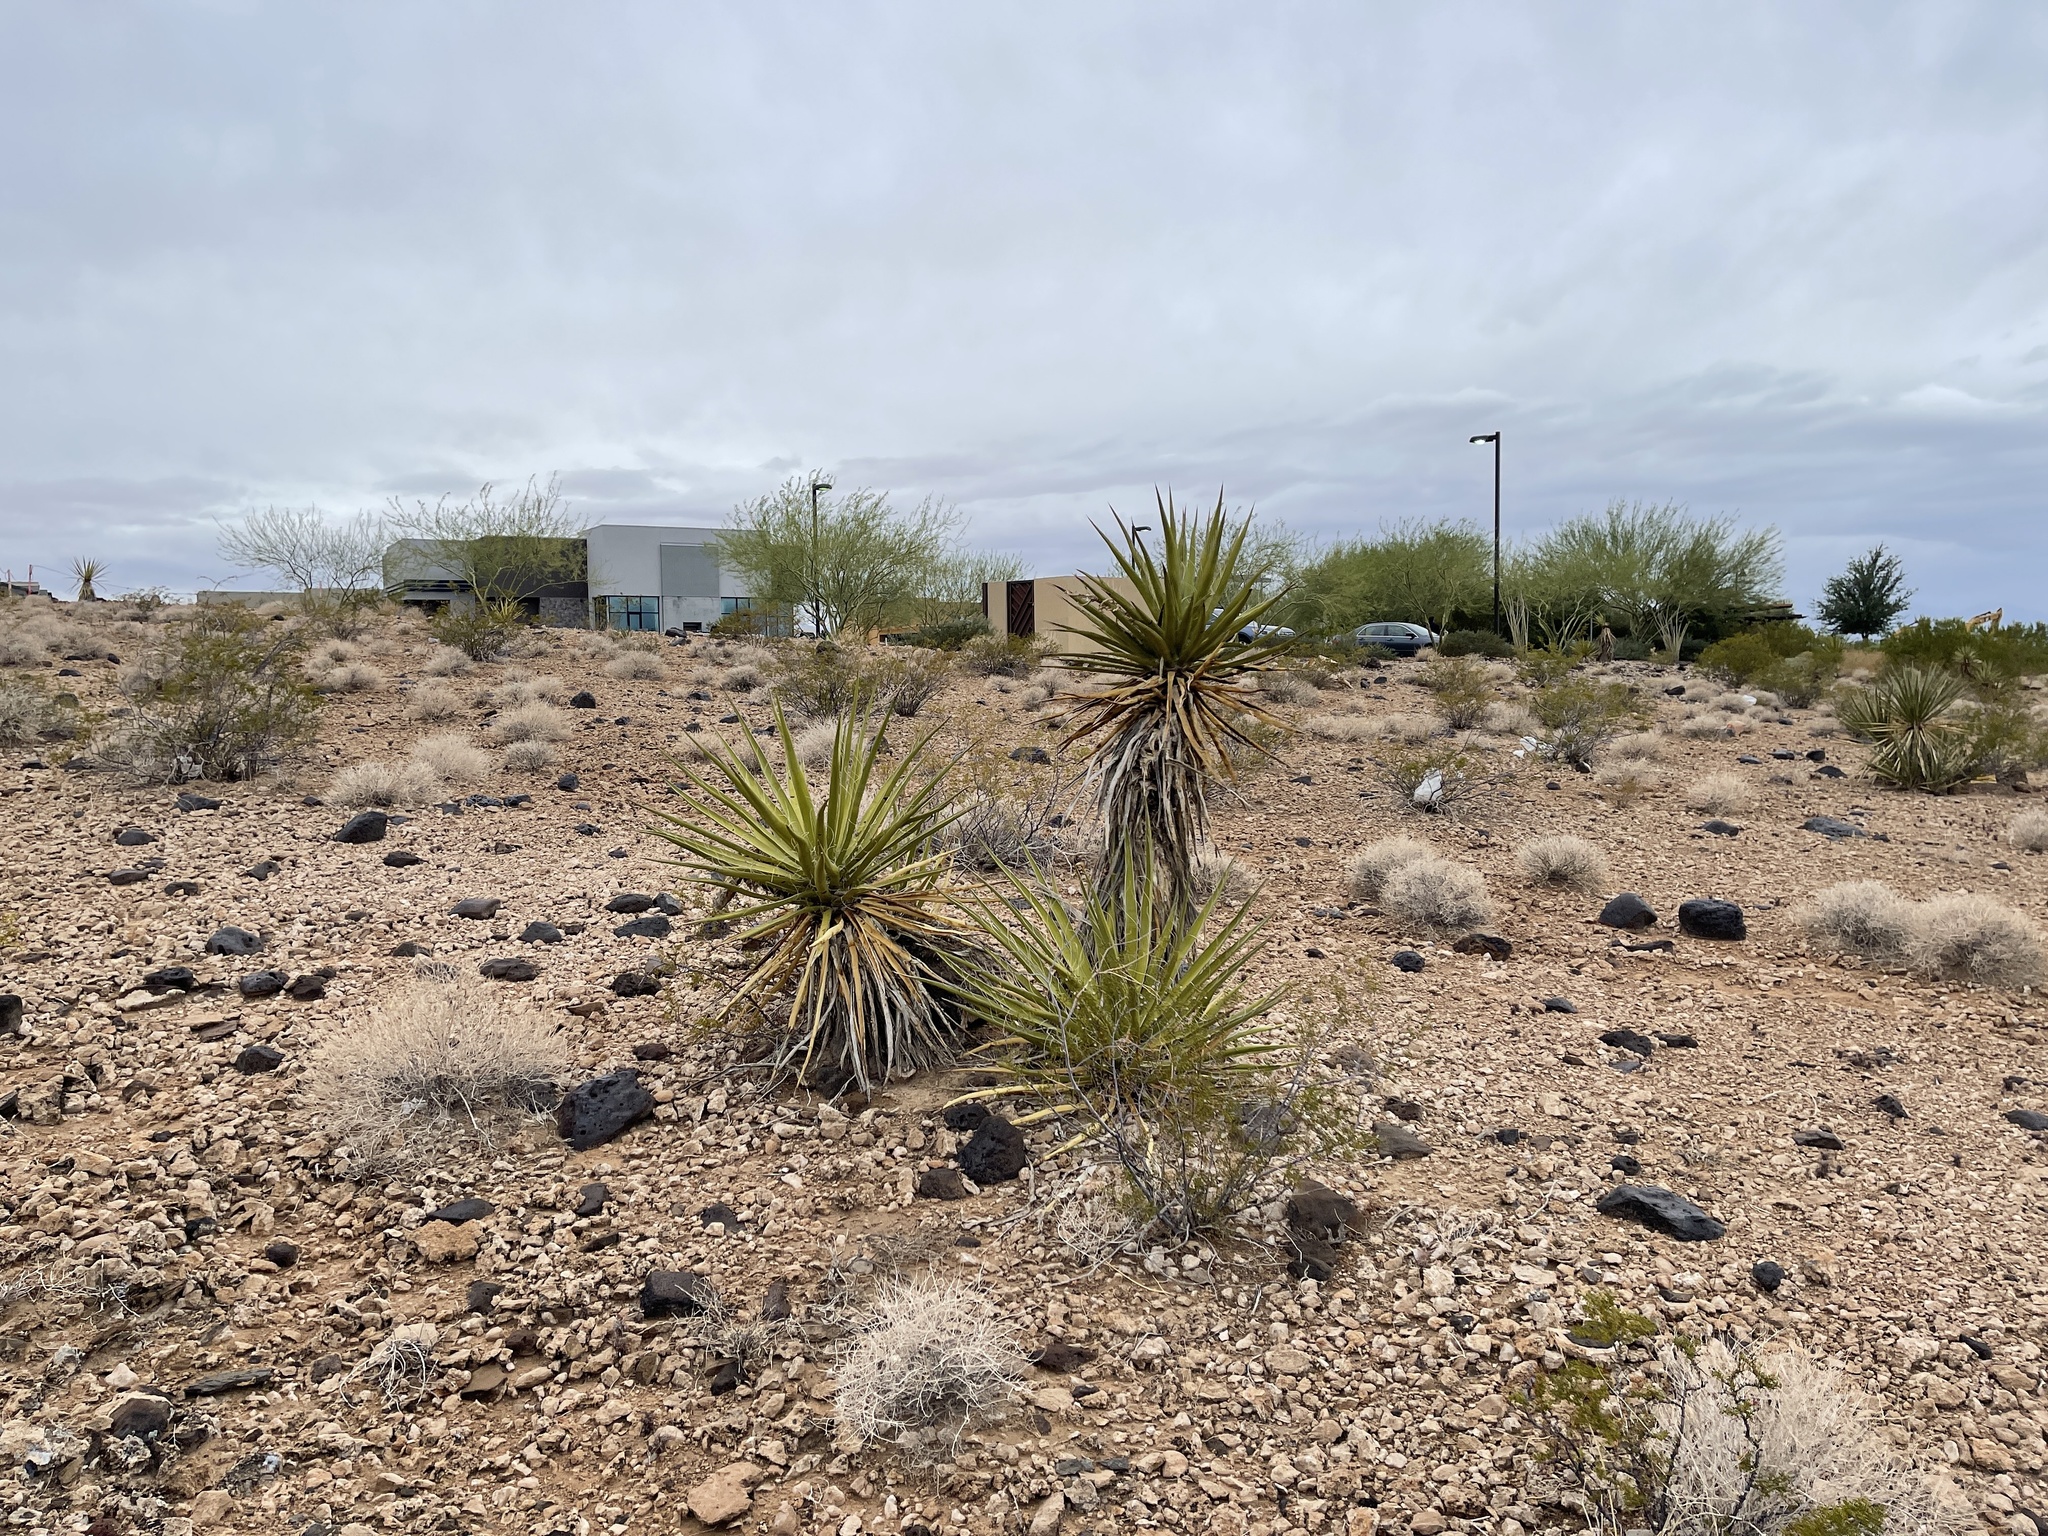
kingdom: Plantae
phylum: Tracheophyta
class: Liliopsida
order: Asparagales
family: Asparagaceae
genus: Yucca
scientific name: Yucca schidigera
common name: Mojave yucca
